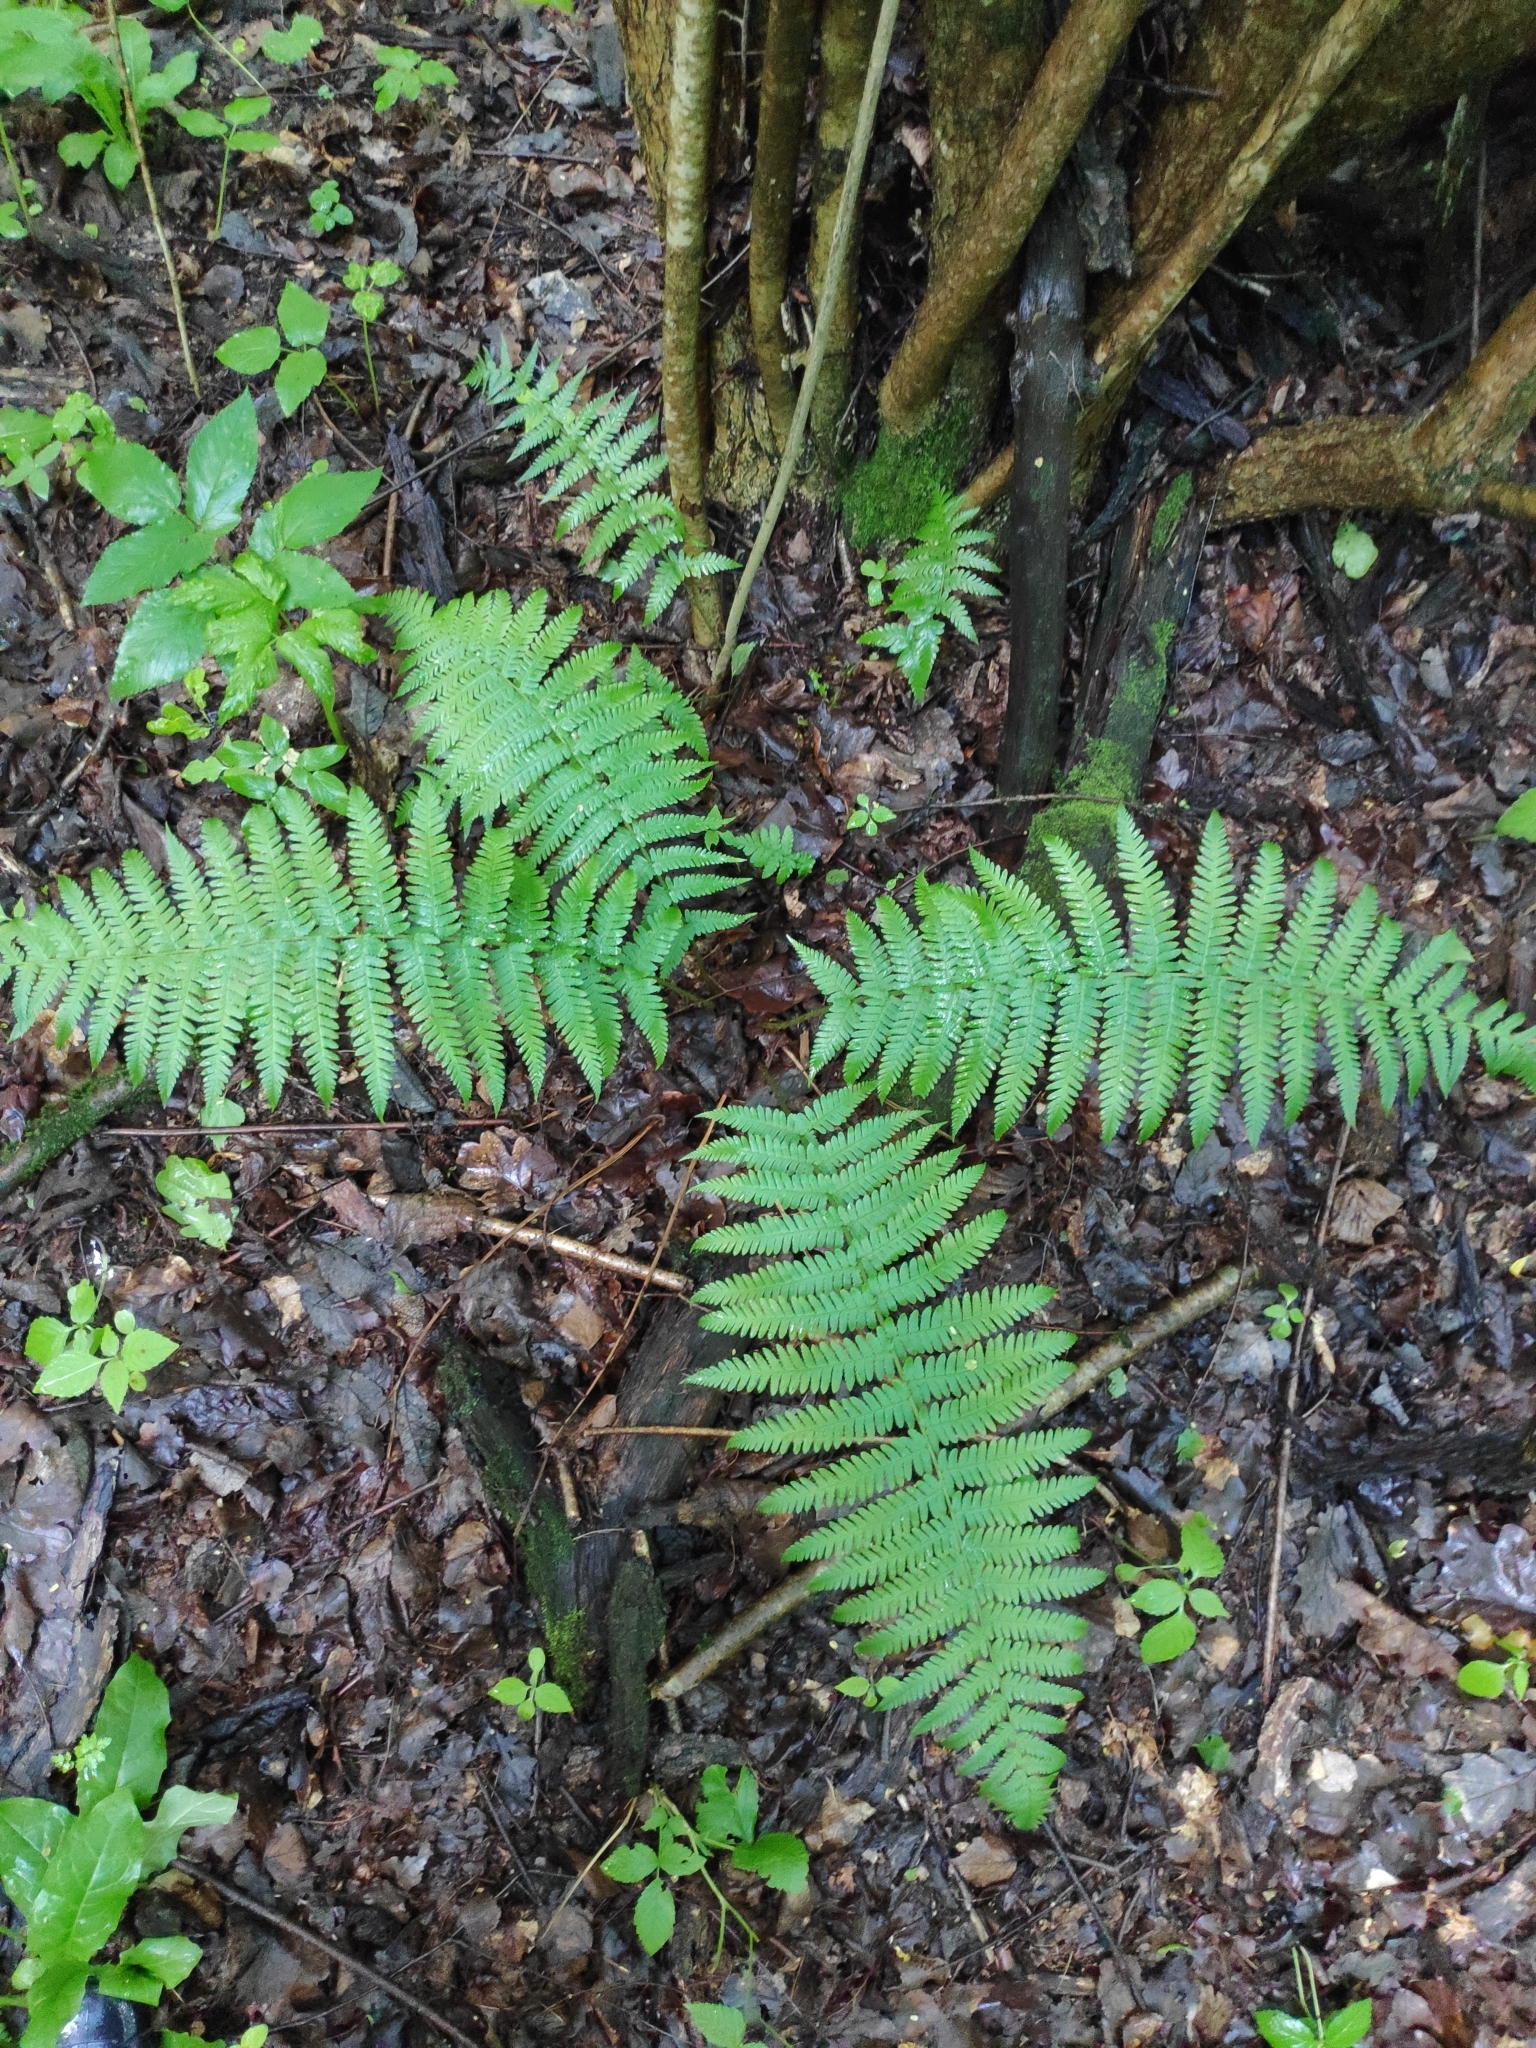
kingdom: Plantae
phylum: Tracheophyta
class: Polypodiopsida
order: Polypodiales
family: Dryopteridaceae
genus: Dryopteris
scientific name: Dryopteris filix-mas
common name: Male fern
